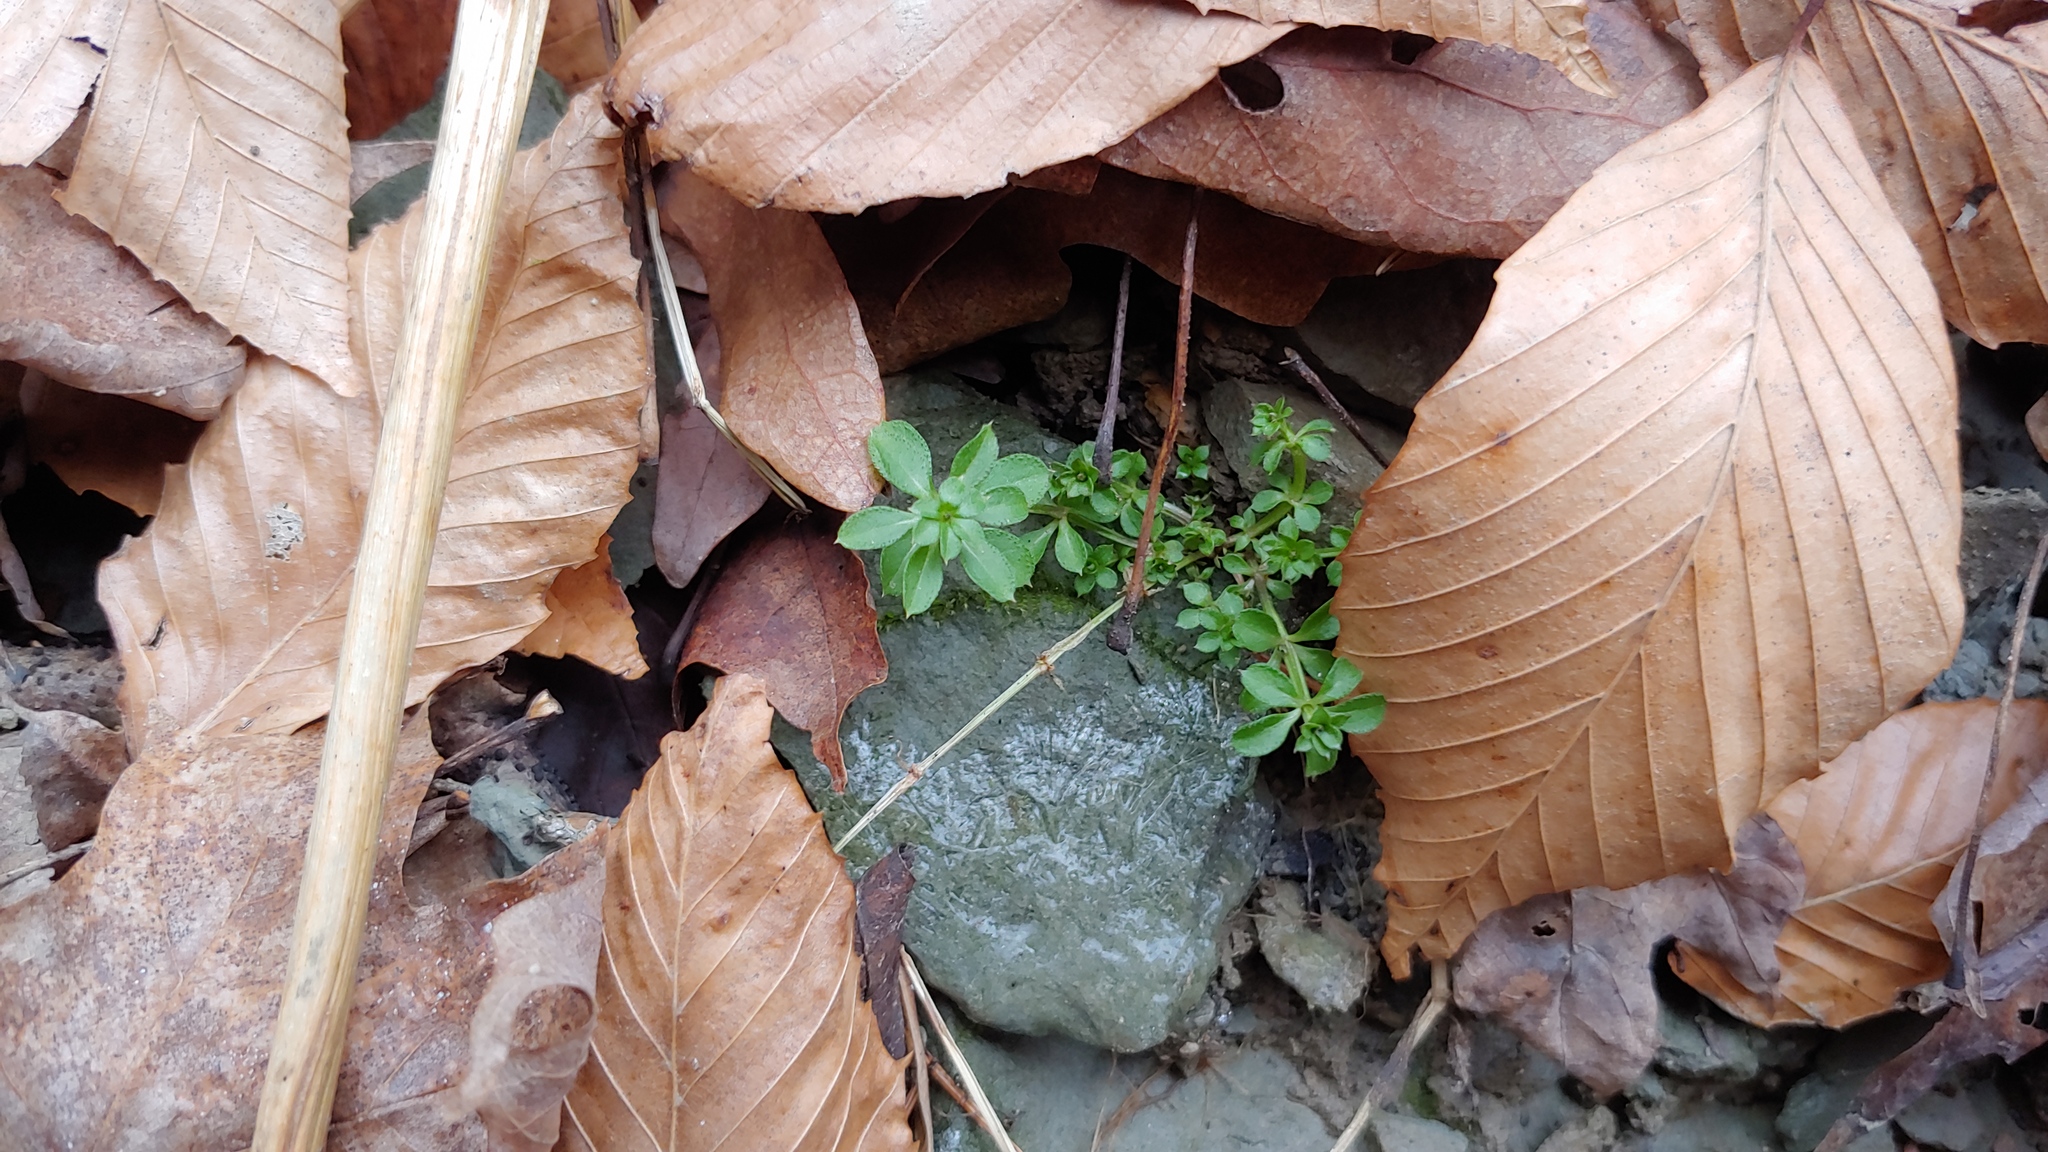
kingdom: Plantae
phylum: Tracheophyta
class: Magnoliopsida
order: Gentianales
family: Rubiaceae
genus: Galium
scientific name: Galium triflorum
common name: Fragrant bedstraw
